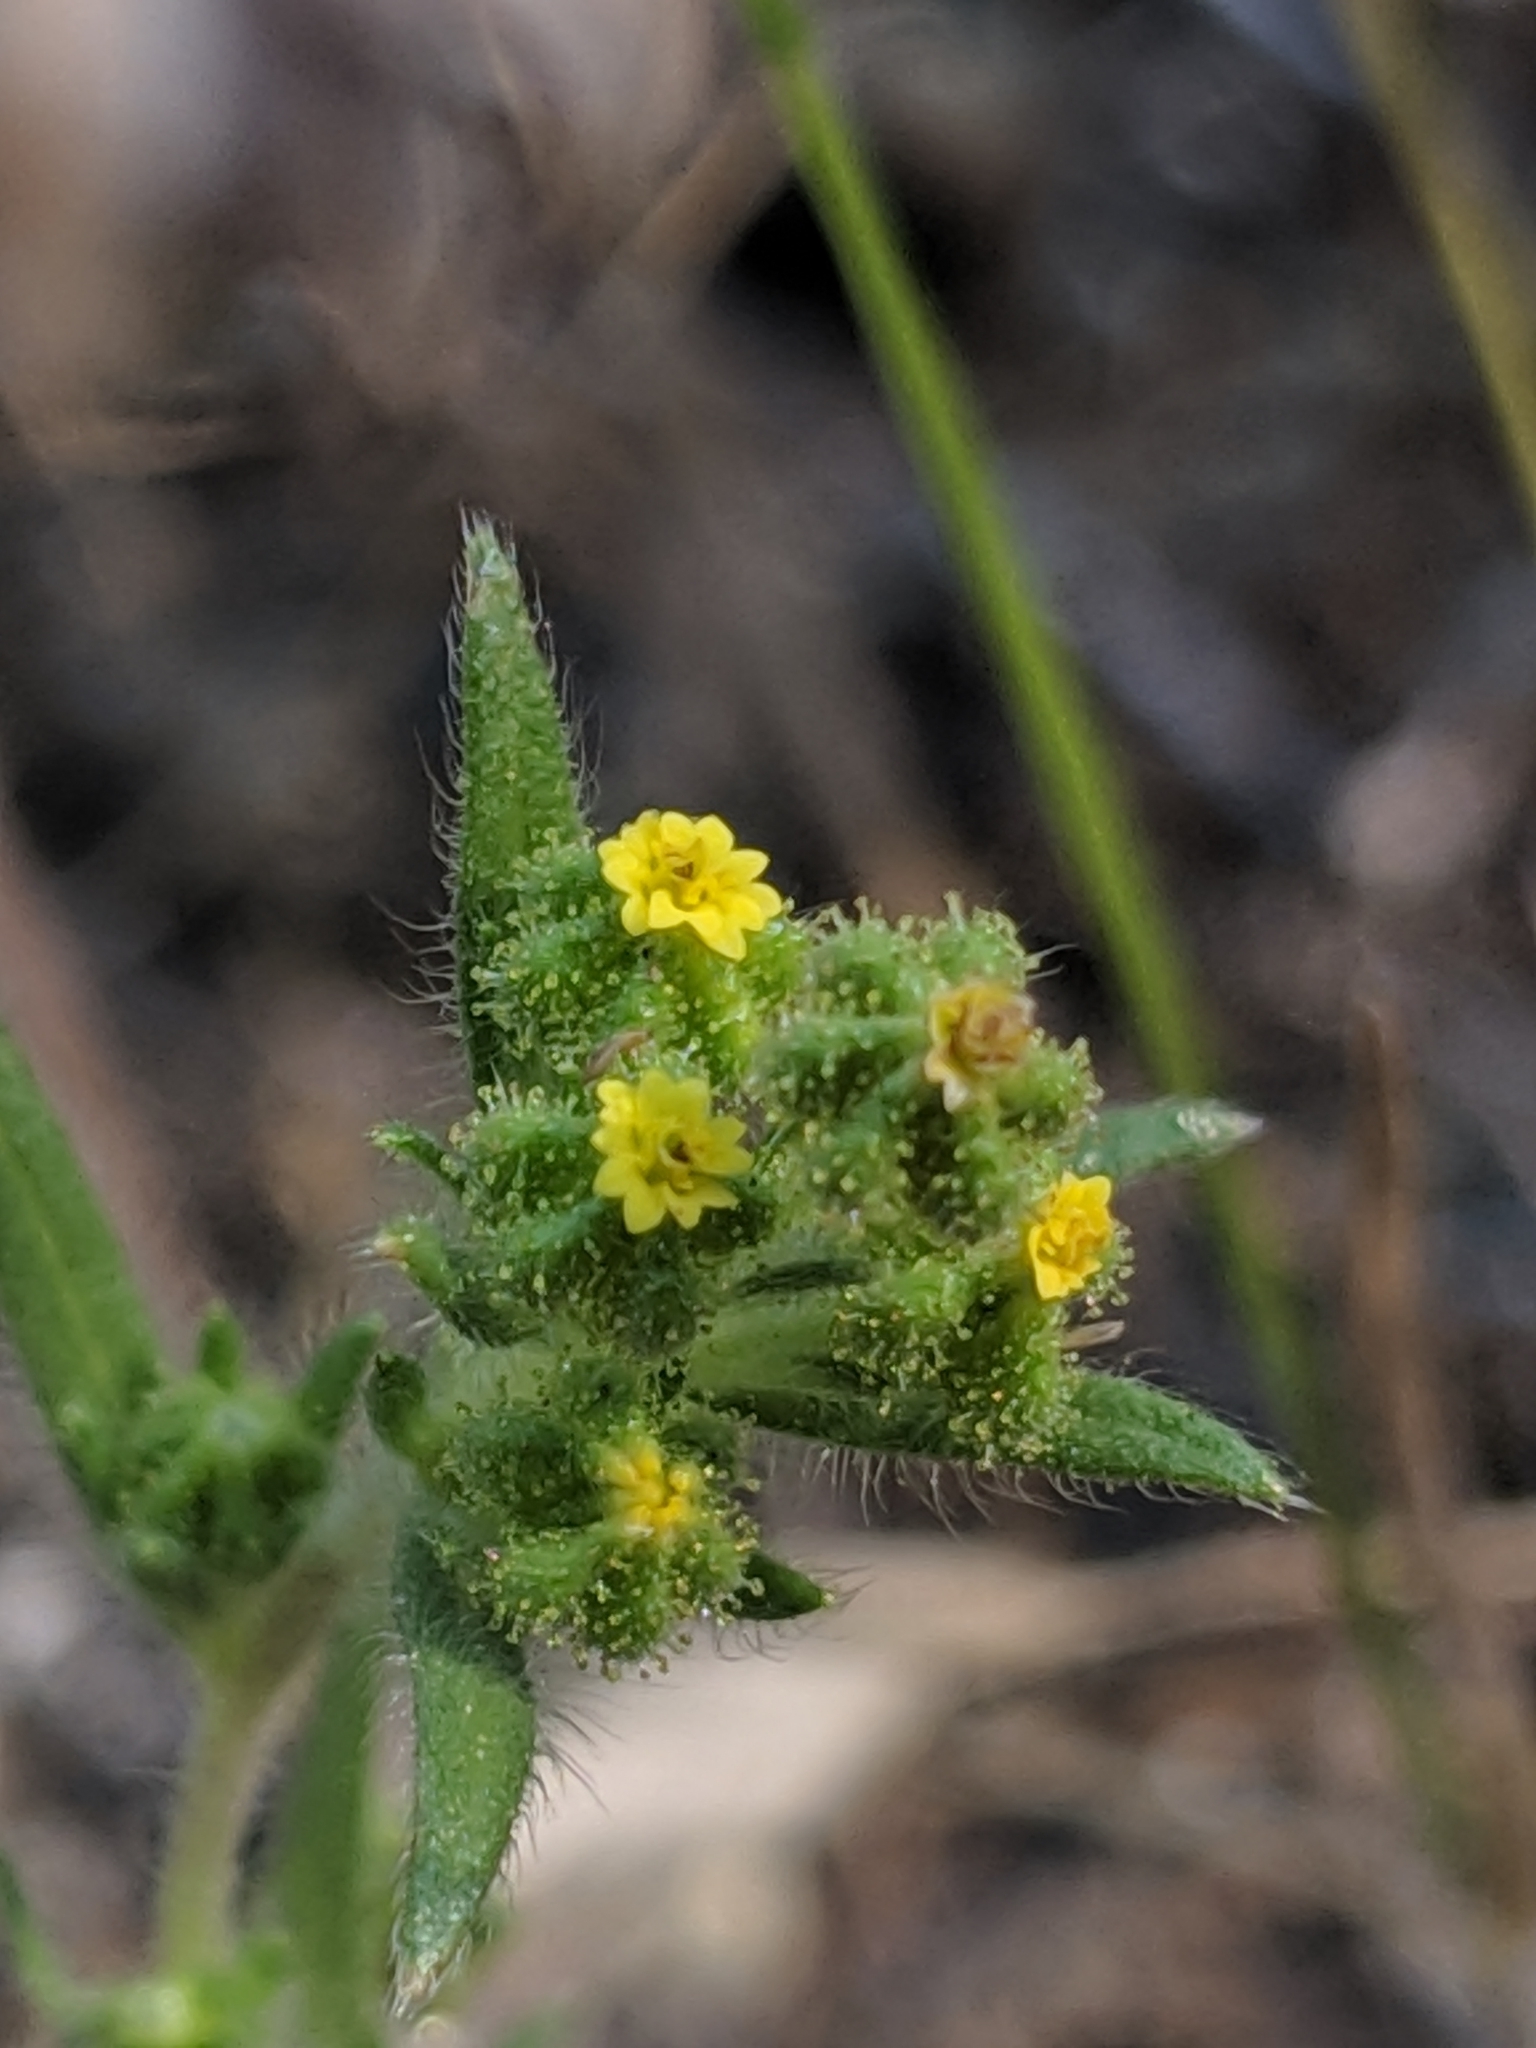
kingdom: Plantae
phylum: Tracheophyta
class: Magnoliopsida
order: Asterales
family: Asteraceae
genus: Madia
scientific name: Madia exigua
